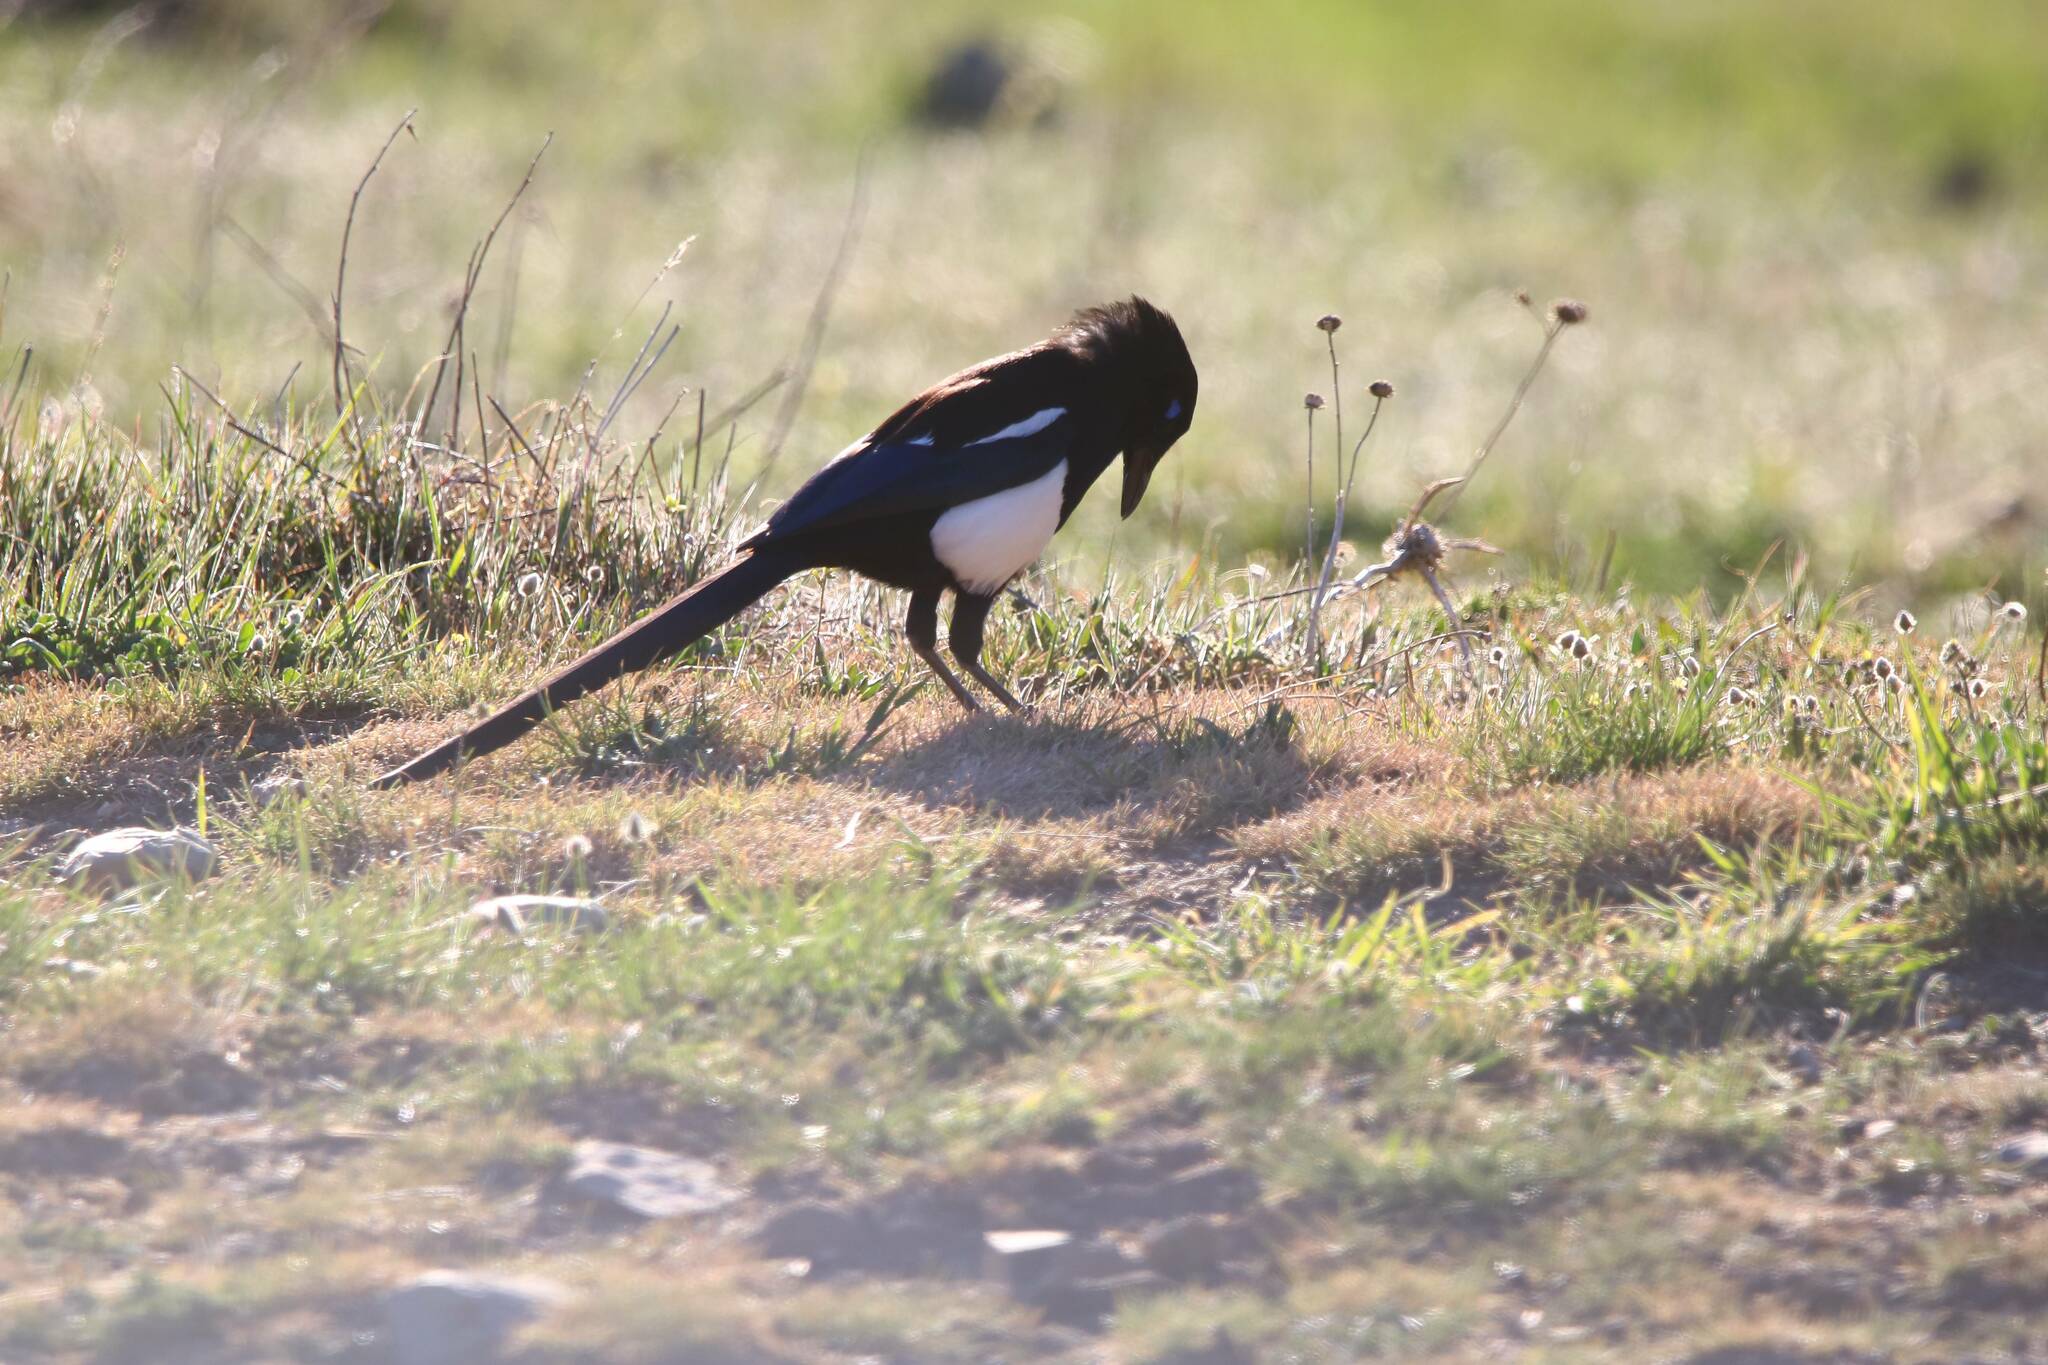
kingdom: Animalia
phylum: Chordata
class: Aves
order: Passeriformes
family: Corvidae
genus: Pica
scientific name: Pica mauritanica
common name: Maghreb magpie
